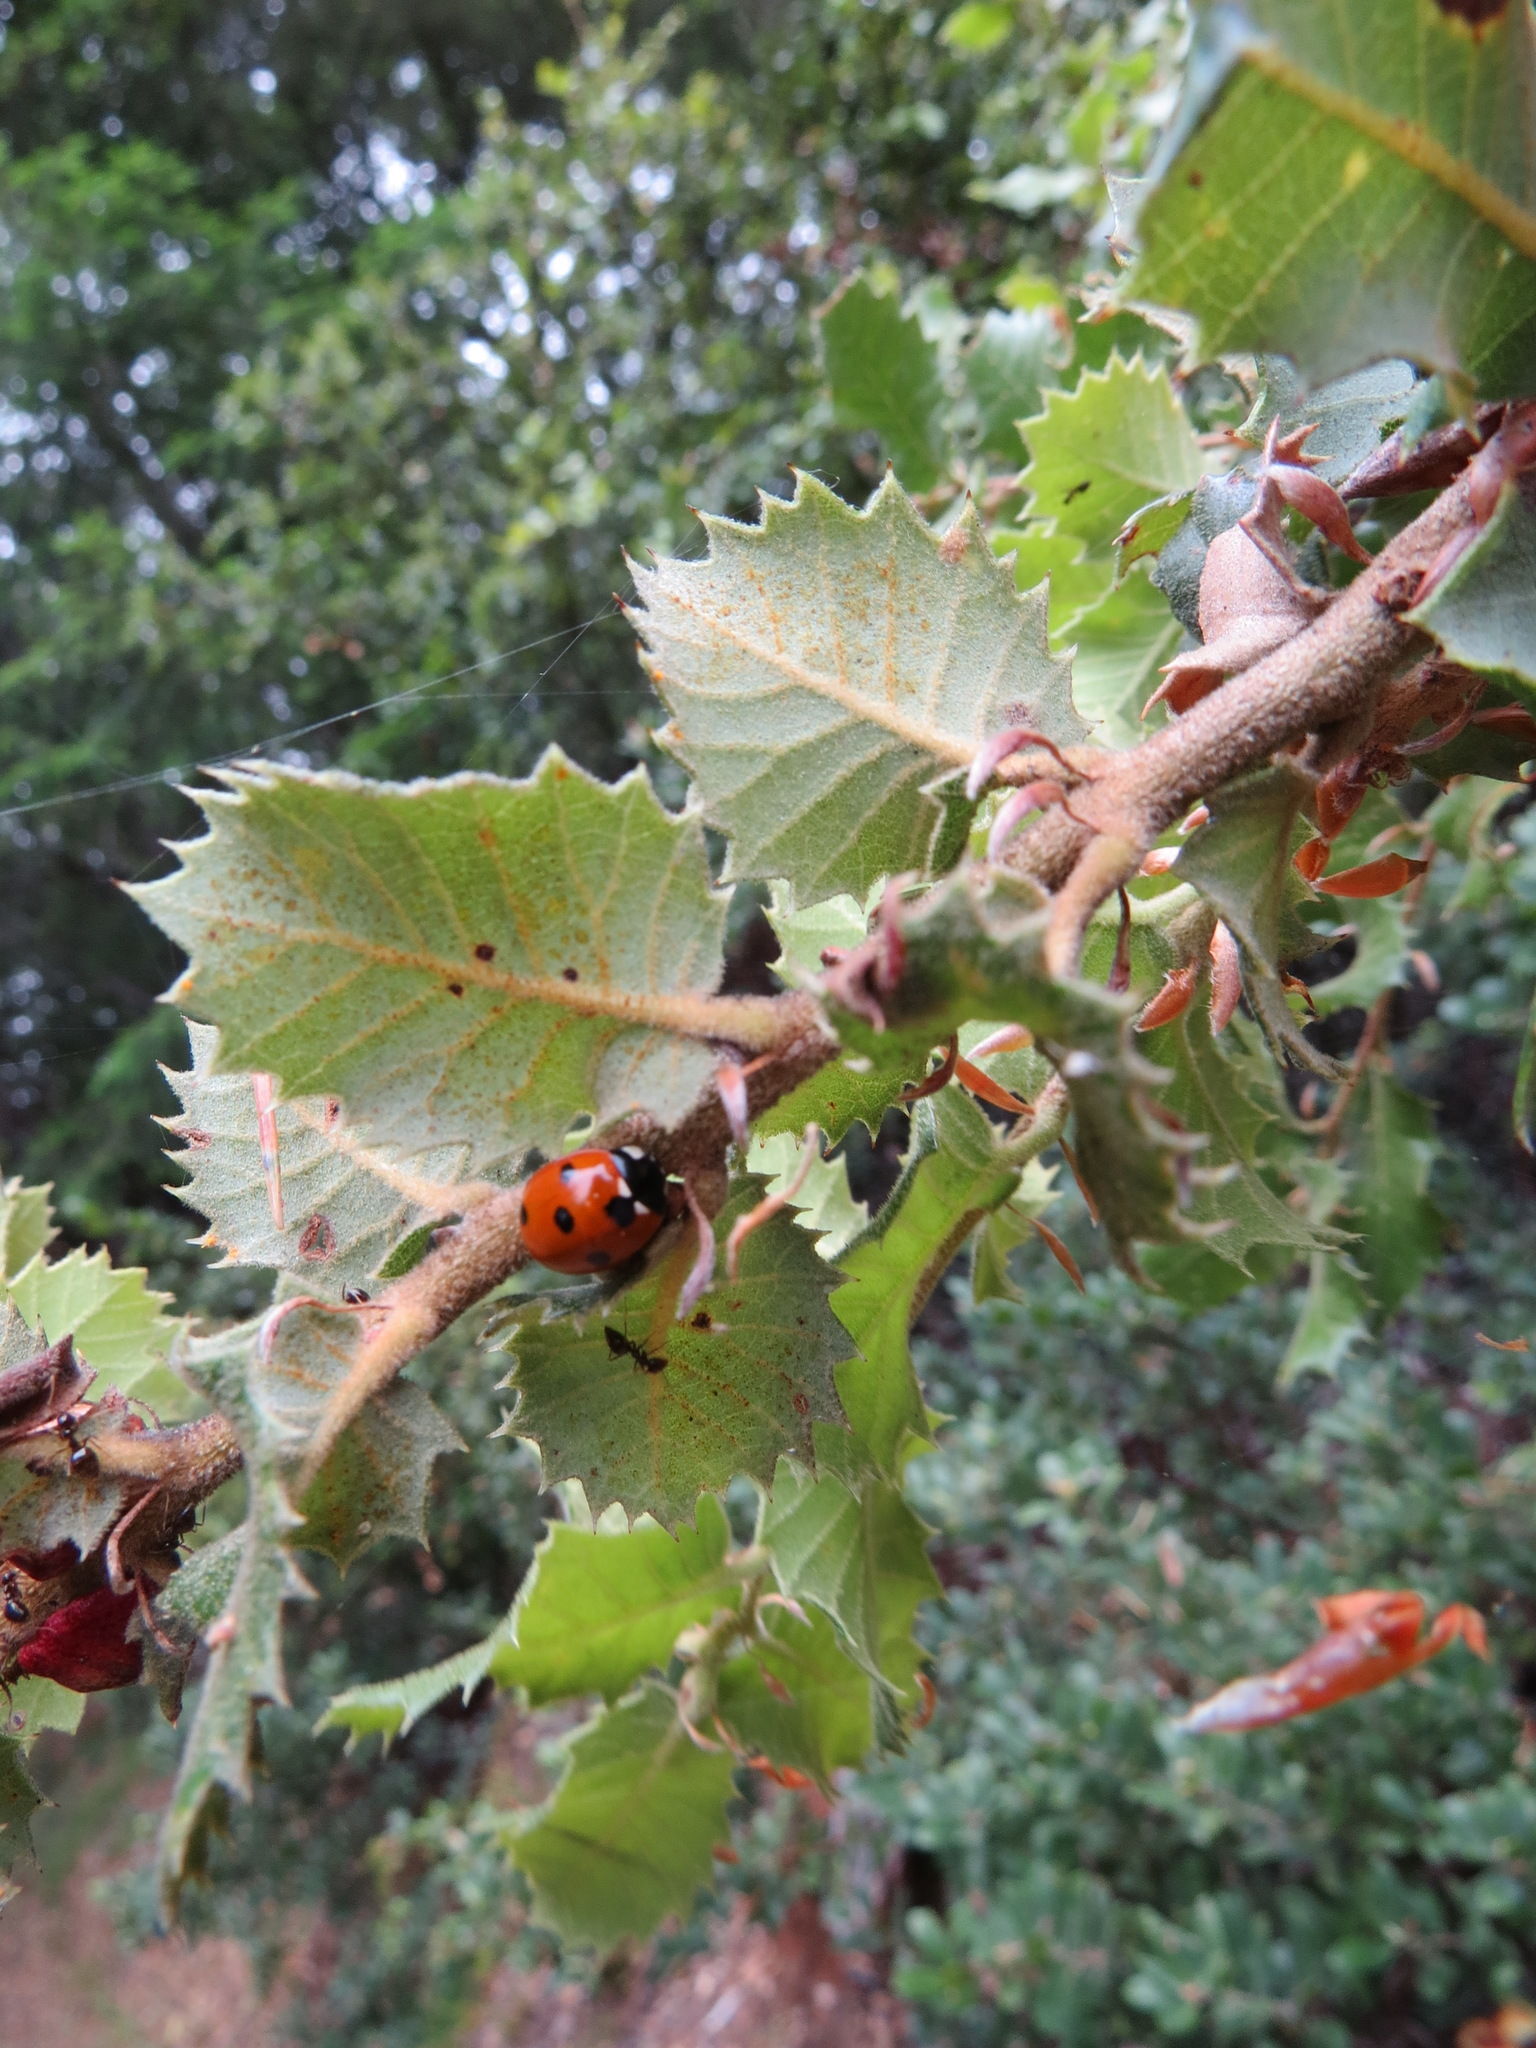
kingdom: Animalia
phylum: Arthropoda
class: Insecta
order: Coleoptera
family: Coccinellidae
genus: Coccinella
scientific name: Coccinella septempunctata
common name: Sevenspotted lady beetle
